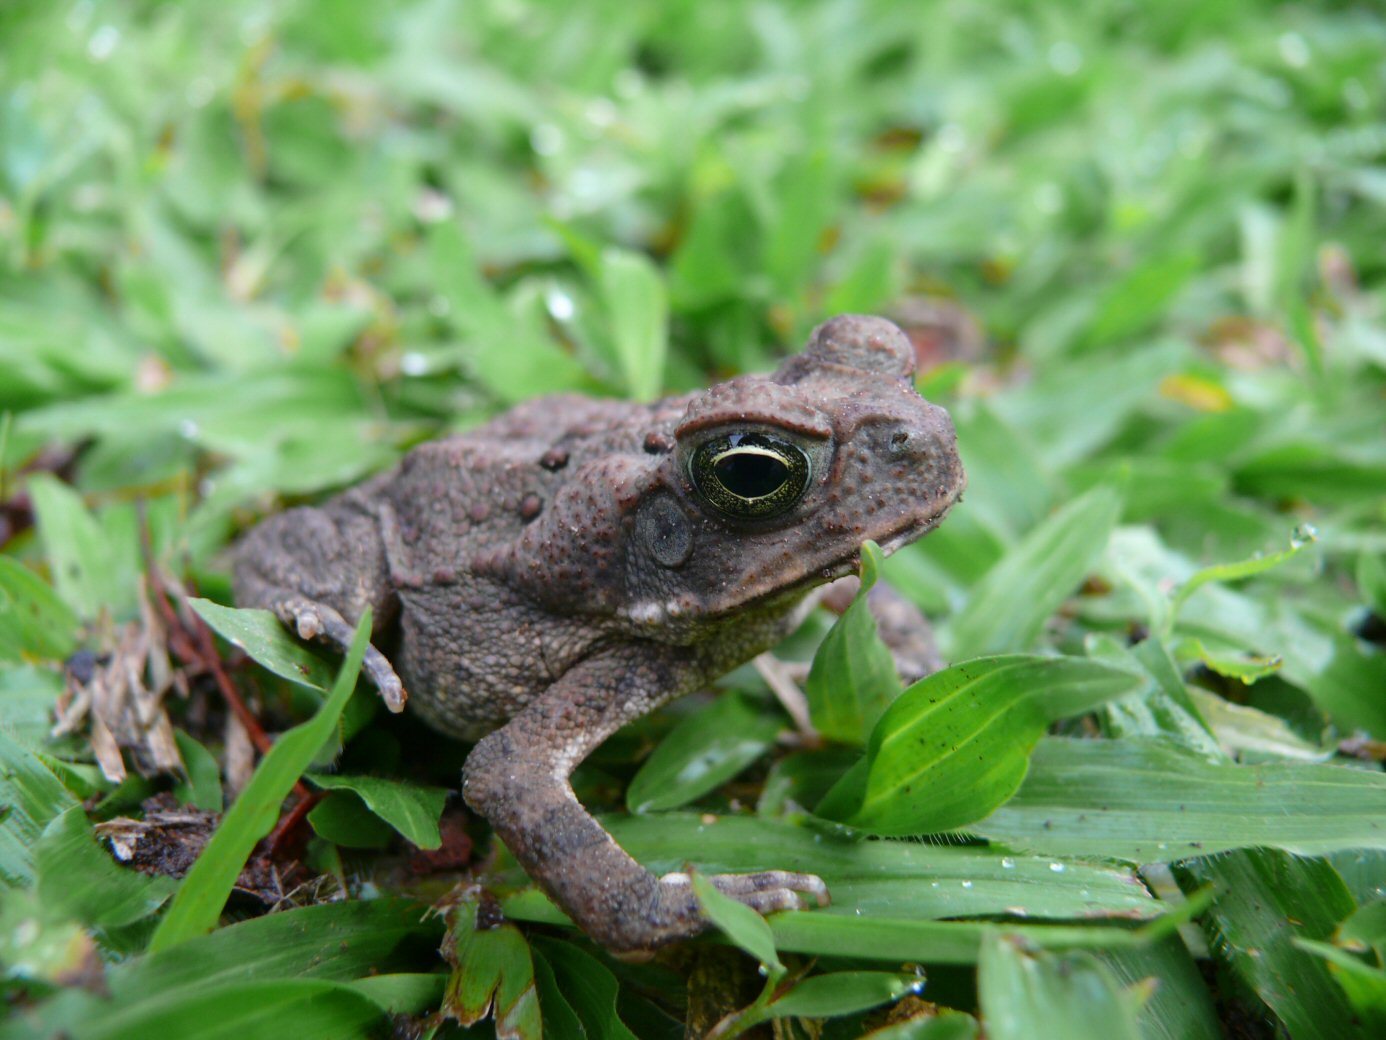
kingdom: Animalia
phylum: Chordata
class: Amphibia
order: Anura
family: Bufonidae
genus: Rhinella
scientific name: Rhinella horribilis
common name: Mesoamerican cane toad
